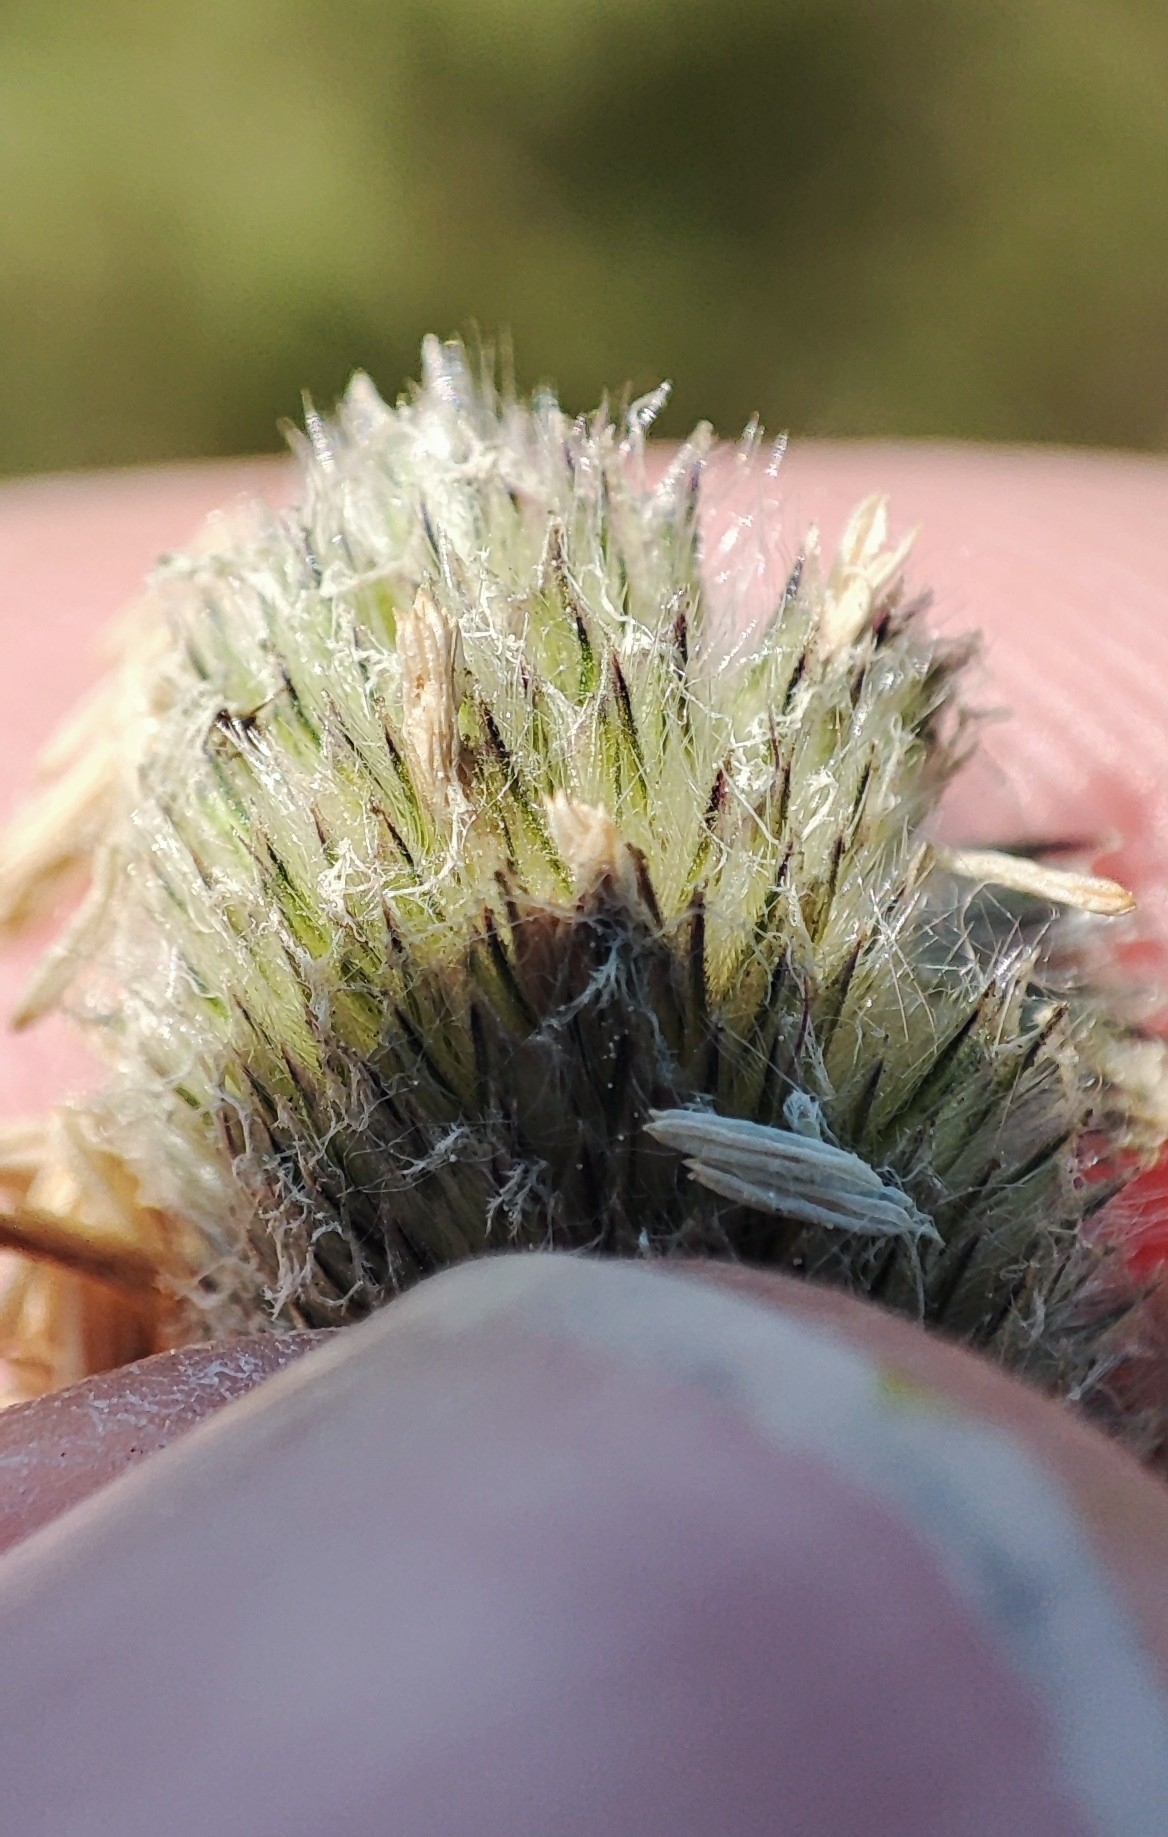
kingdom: Plantae
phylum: Tracheophyta
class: Liliopsida
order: Poales
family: Poaceae
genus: Alopecurus
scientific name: Alopecurus pratensis
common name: Meadow foxtail
